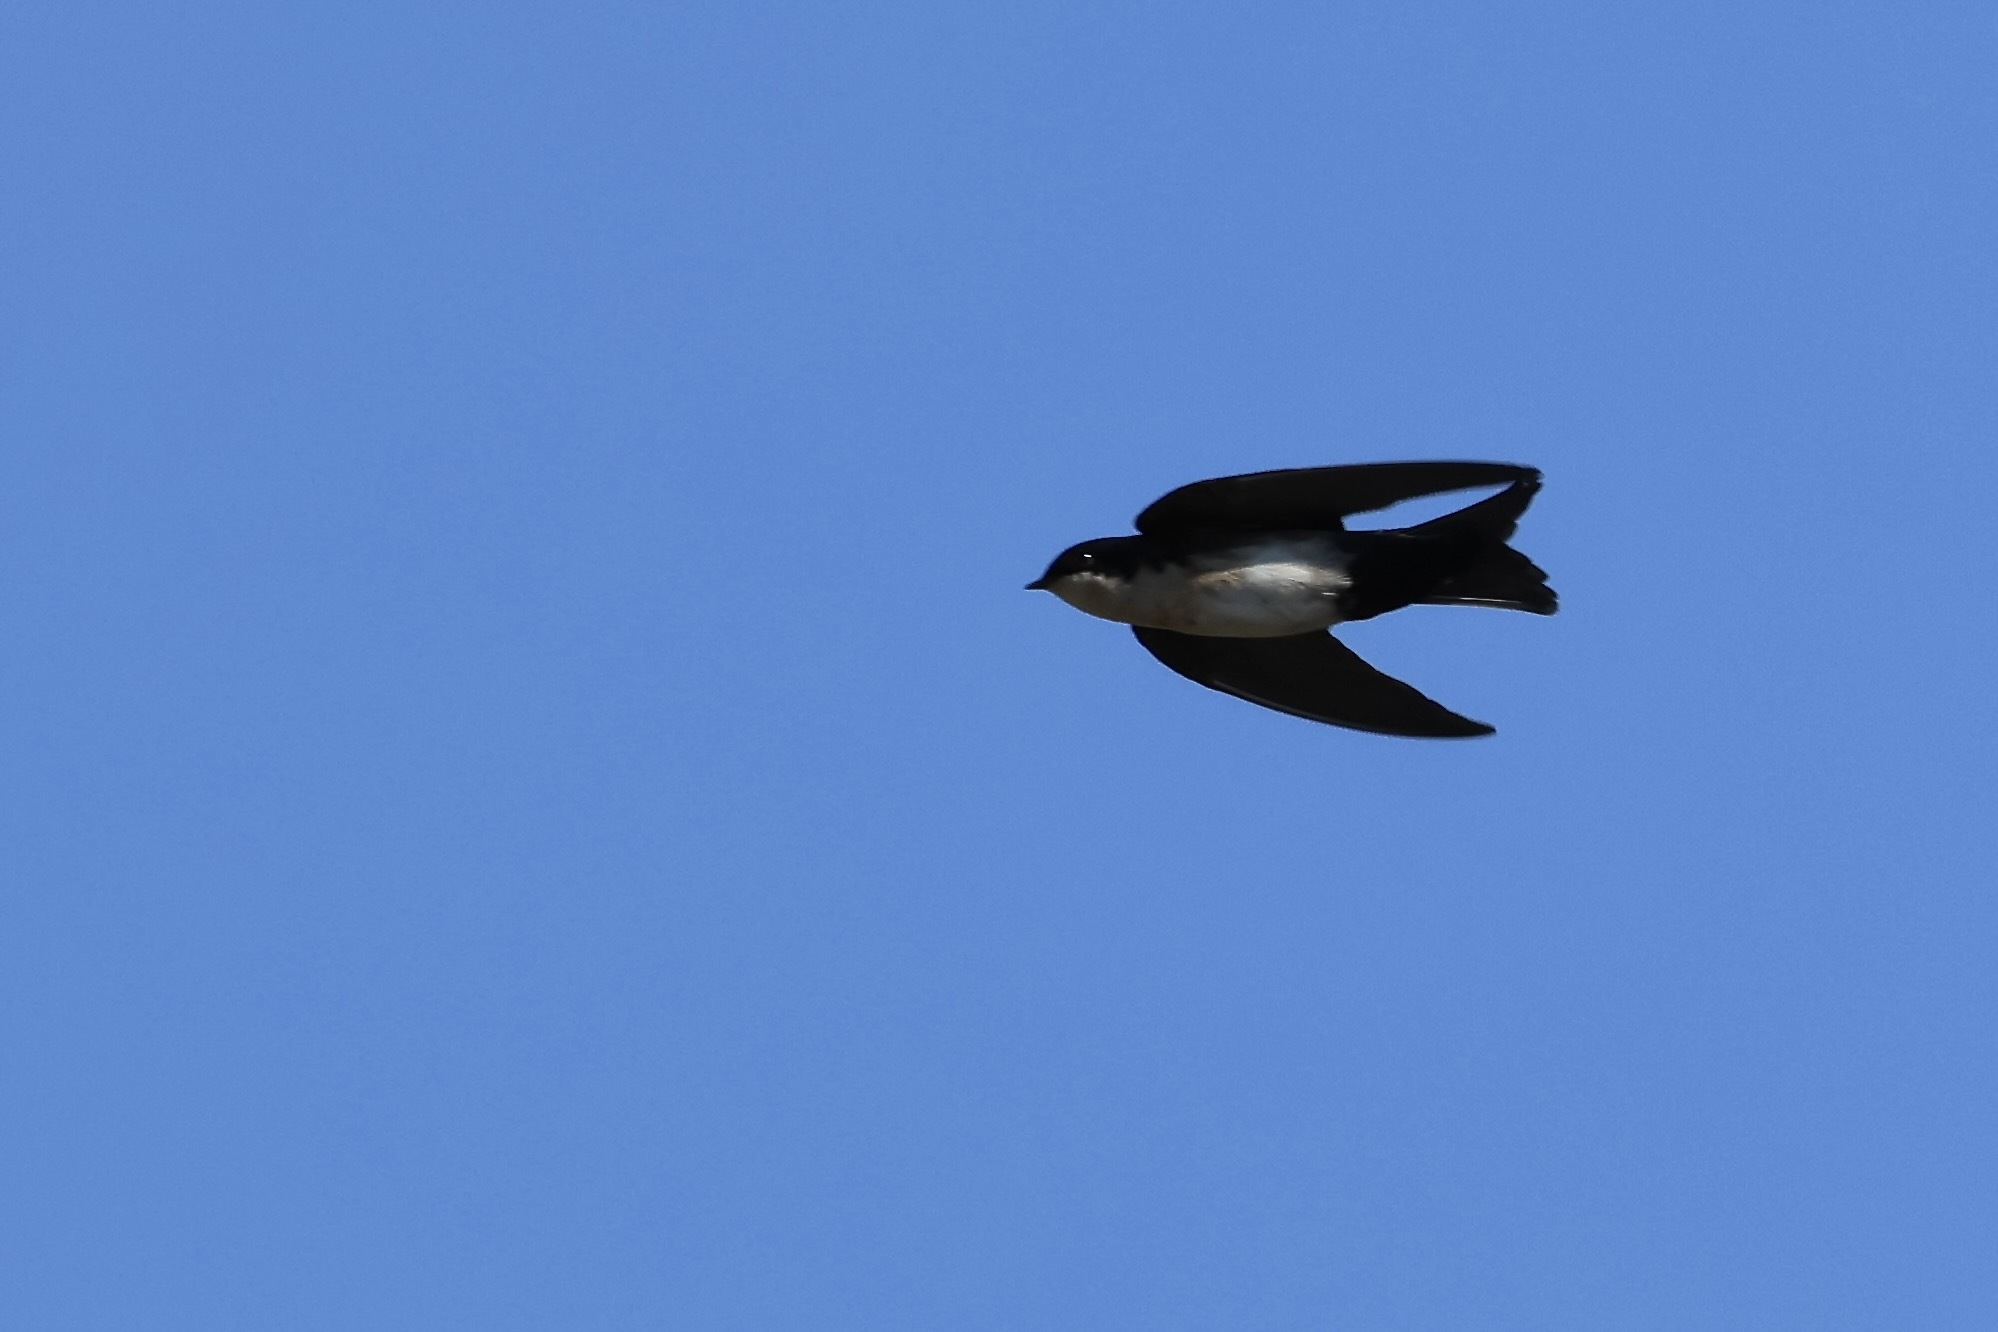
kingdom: Animalia
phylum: Chordata
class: Aves
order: Passeriformes
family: Hirundinidae
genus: Notiochelidon
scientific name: Notiochelidon cyanoleuca
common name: Blue-and-white swallow
